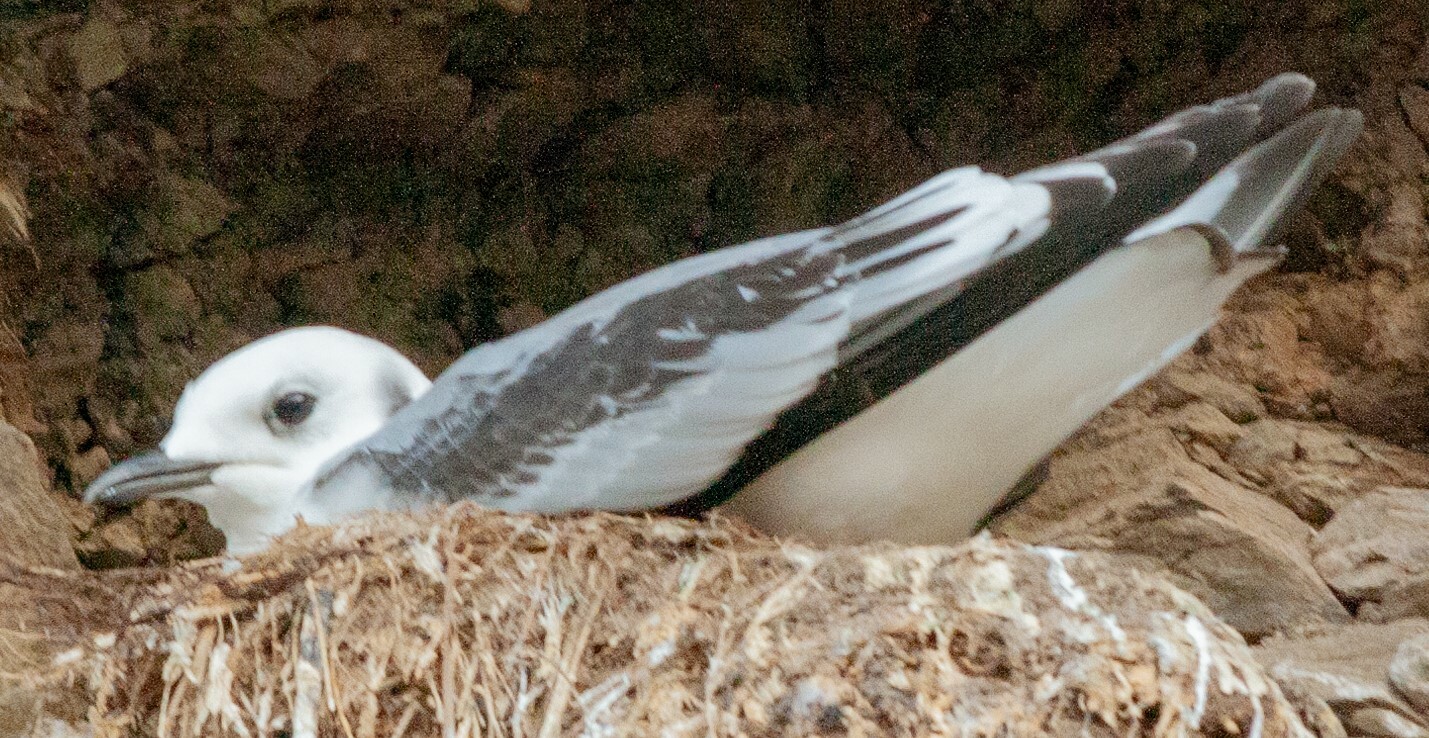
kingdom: Animalia
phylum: Chordata
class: Aves
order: Charadriiformes
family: Laridae
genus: Rissa
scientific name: Rissa tridactyla
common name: Black-legged kittiwake
